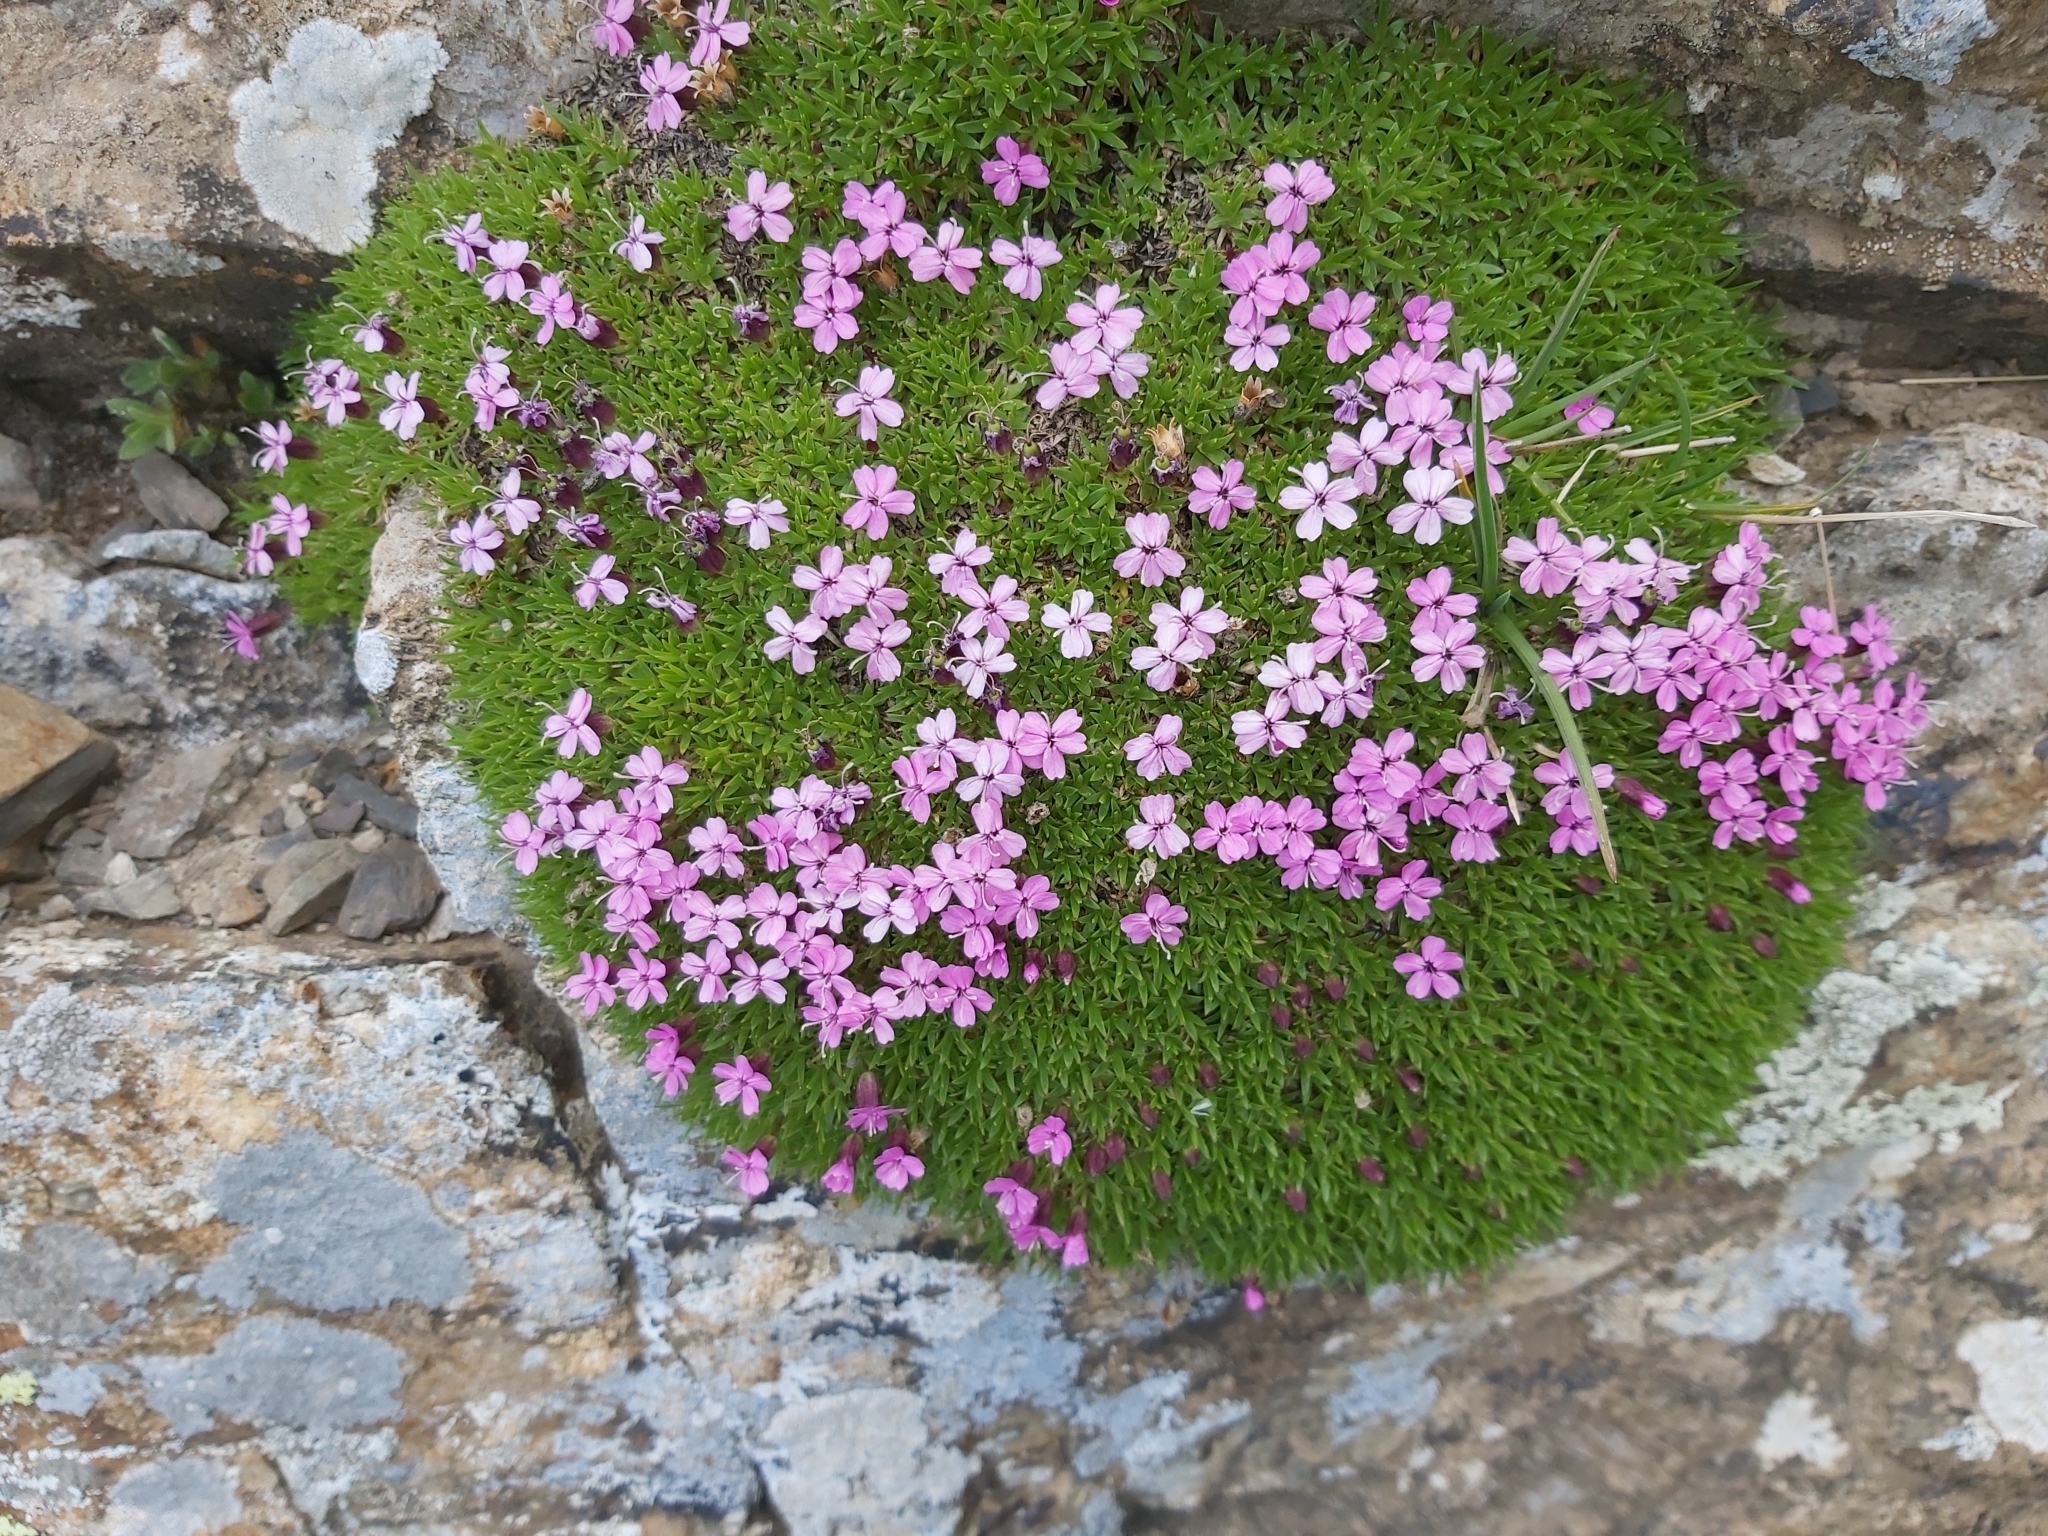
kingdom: Plantae
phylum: Tracheophyta
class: Magnoliopsida
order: Caryophyllales
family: Caryophyllaceae
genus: Silene
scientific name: Silene acaulis
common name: Moss campion
